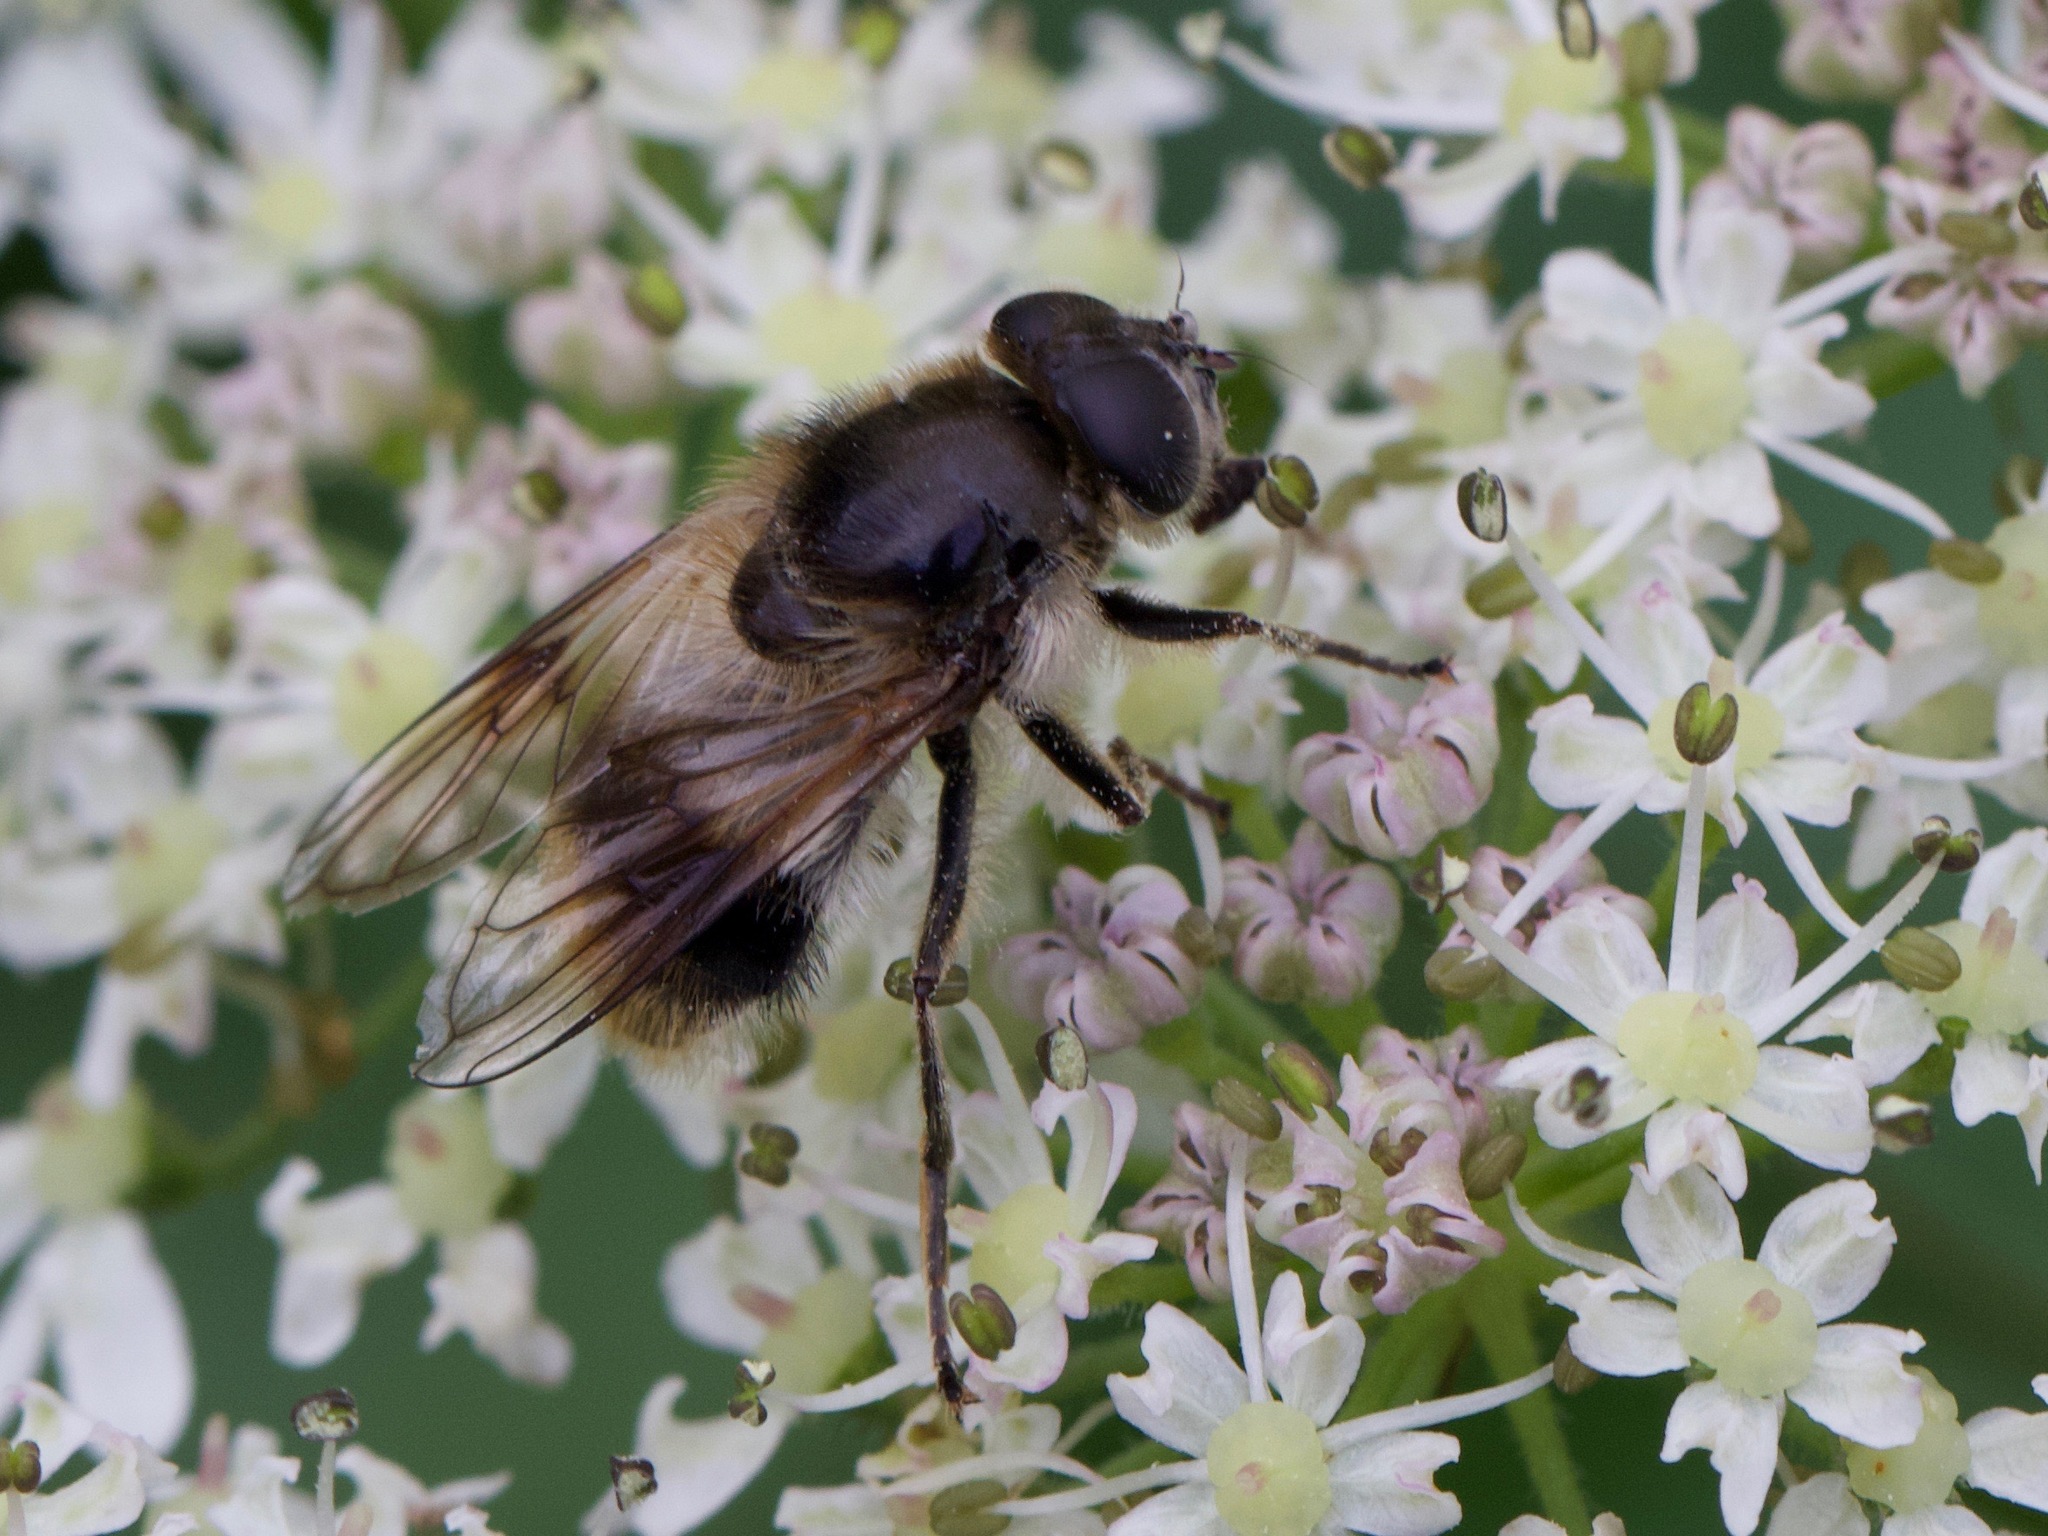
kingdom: Animalia
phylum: Arthropoda
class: Insecta
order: Diptera
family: Syrphidae
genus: Cheilosia
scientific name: Cheilosia illustrata
